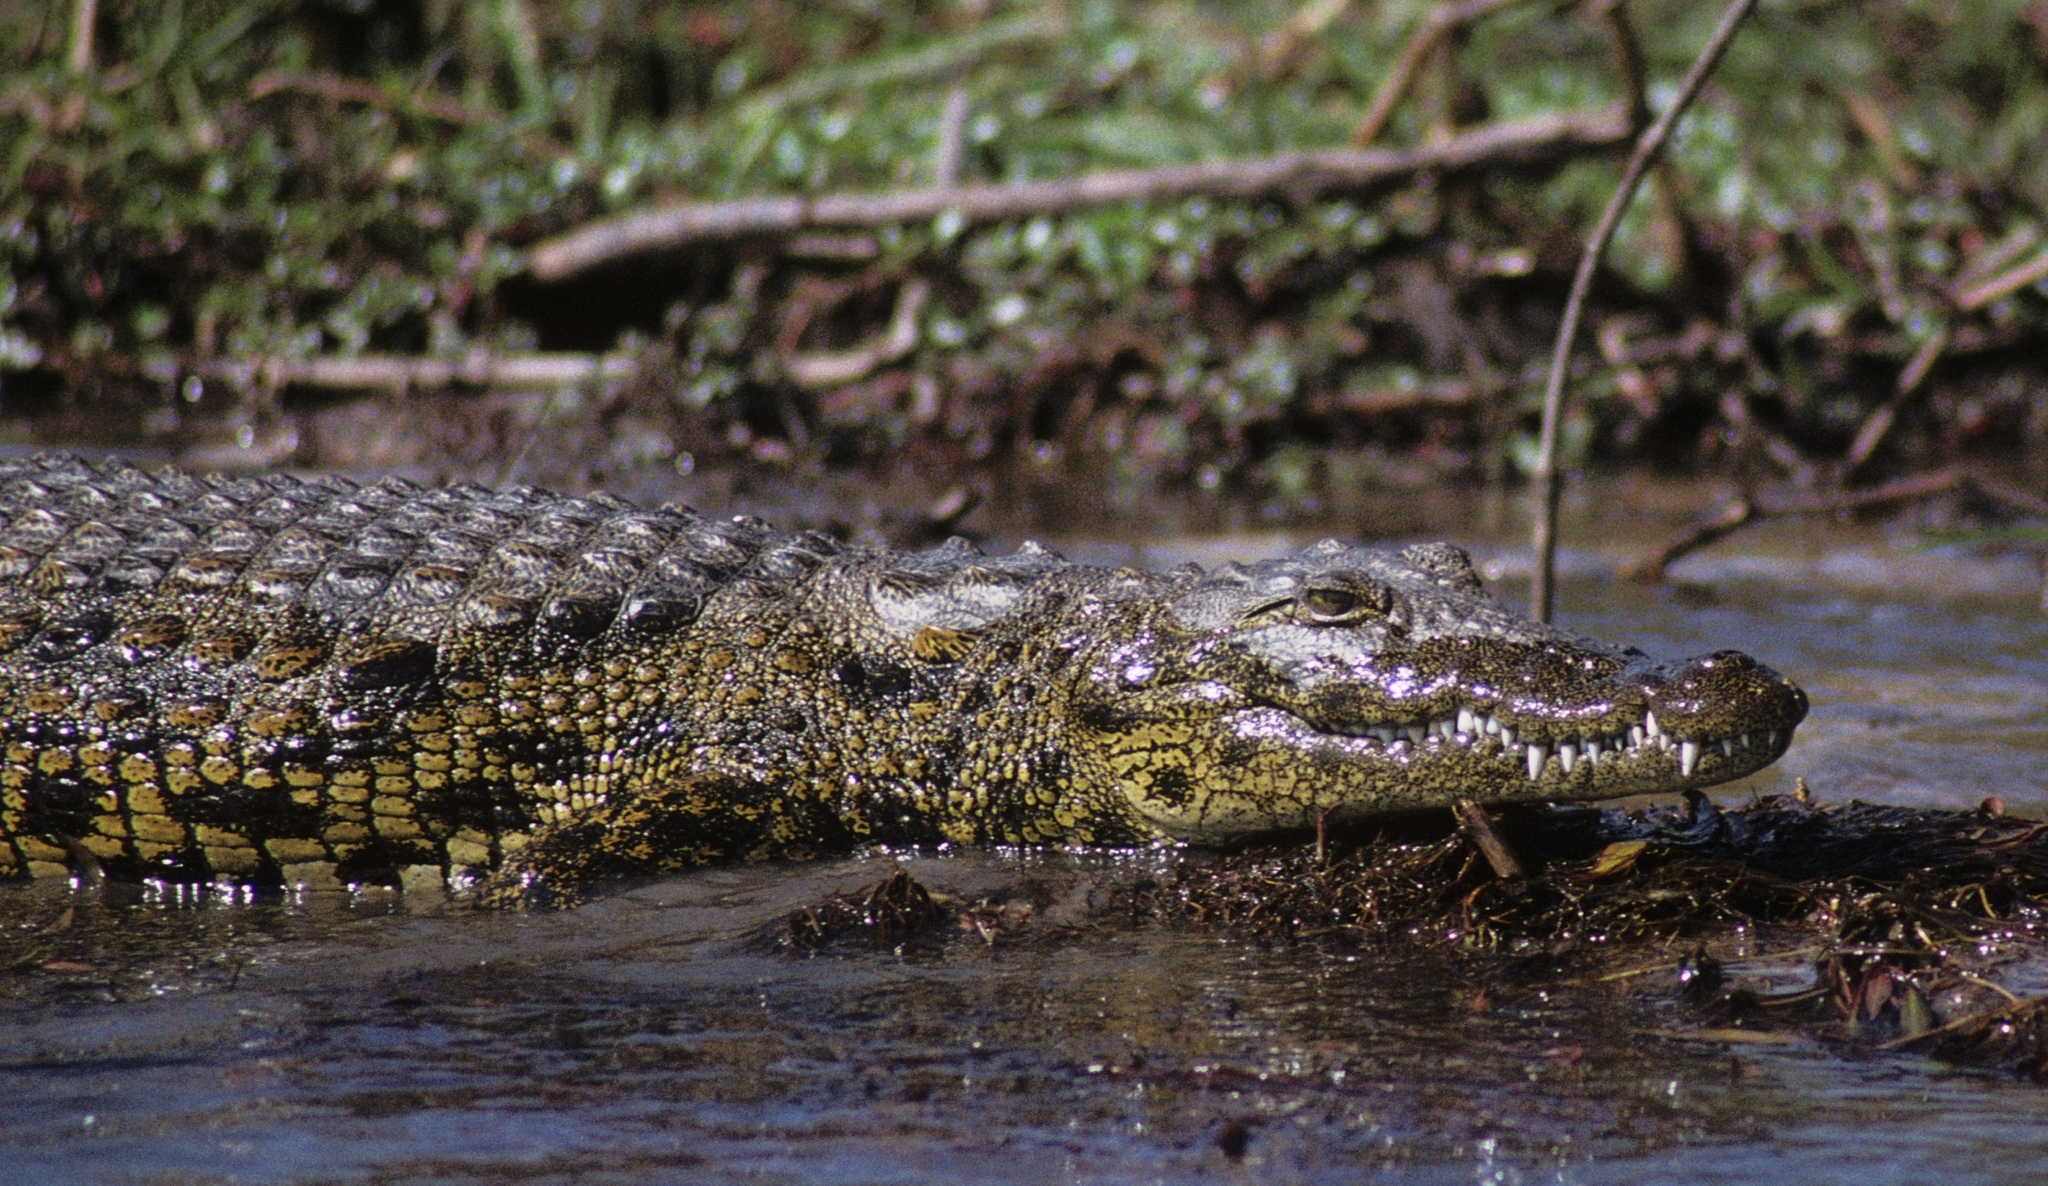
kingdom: Animalia
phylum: Chordata
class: Crocodylia
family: Crocodylidae
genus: Crocodylus
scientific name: Crocodylus niloticus
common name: Nile crocodile
